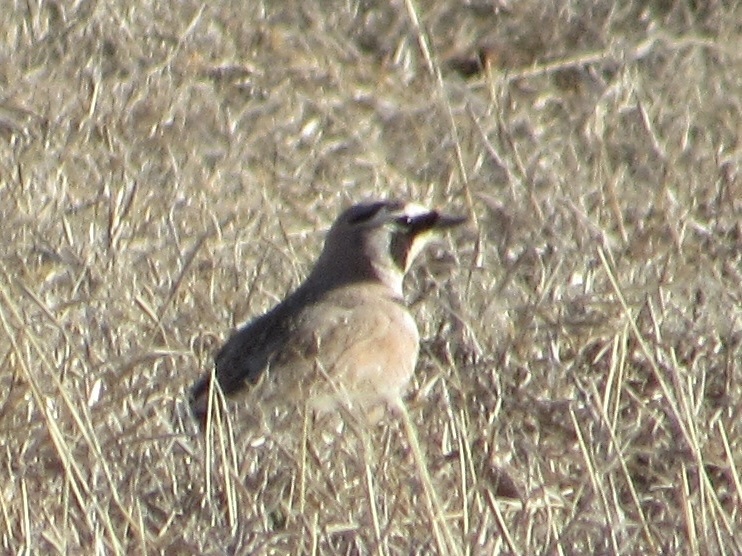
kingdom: Animalia
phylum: Chordata
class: Aves
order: Passeriformes
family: Alaudidae
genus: Eremophila
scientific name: Eremophila alpestris
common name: Horned lark
